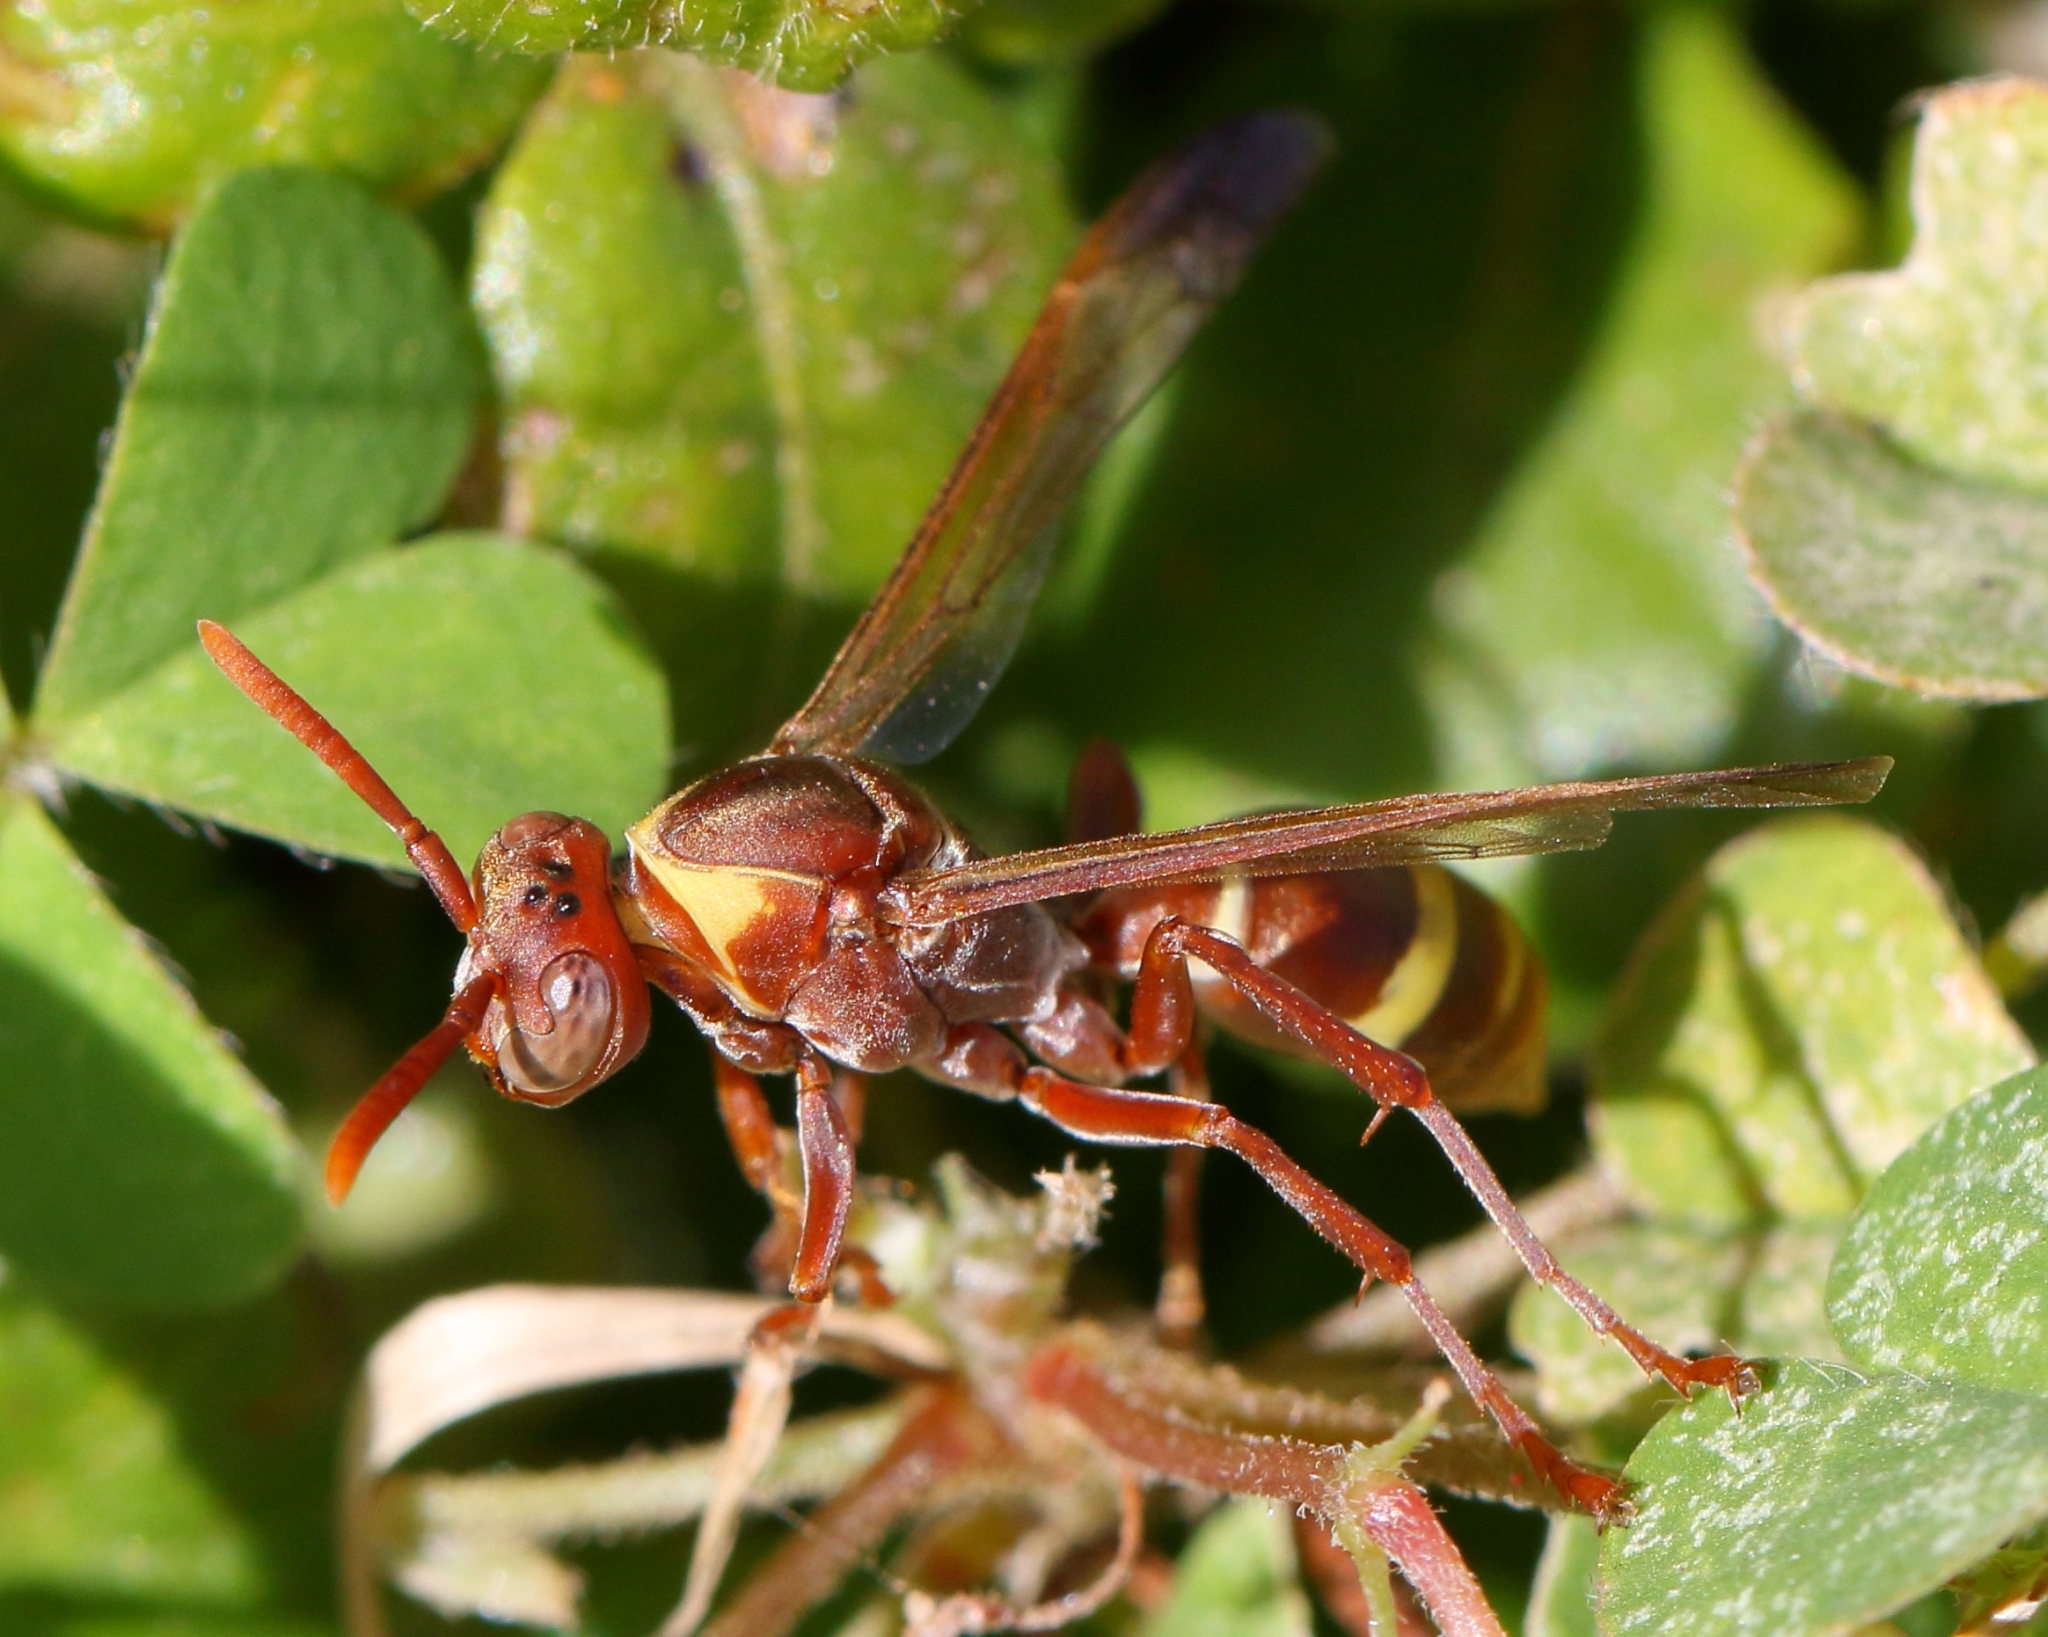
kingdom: Animalia
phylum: Arthropoda
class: Insecta
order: Hymenoptera
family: Eumenidae
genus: Polistes
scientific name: Polistes badius
